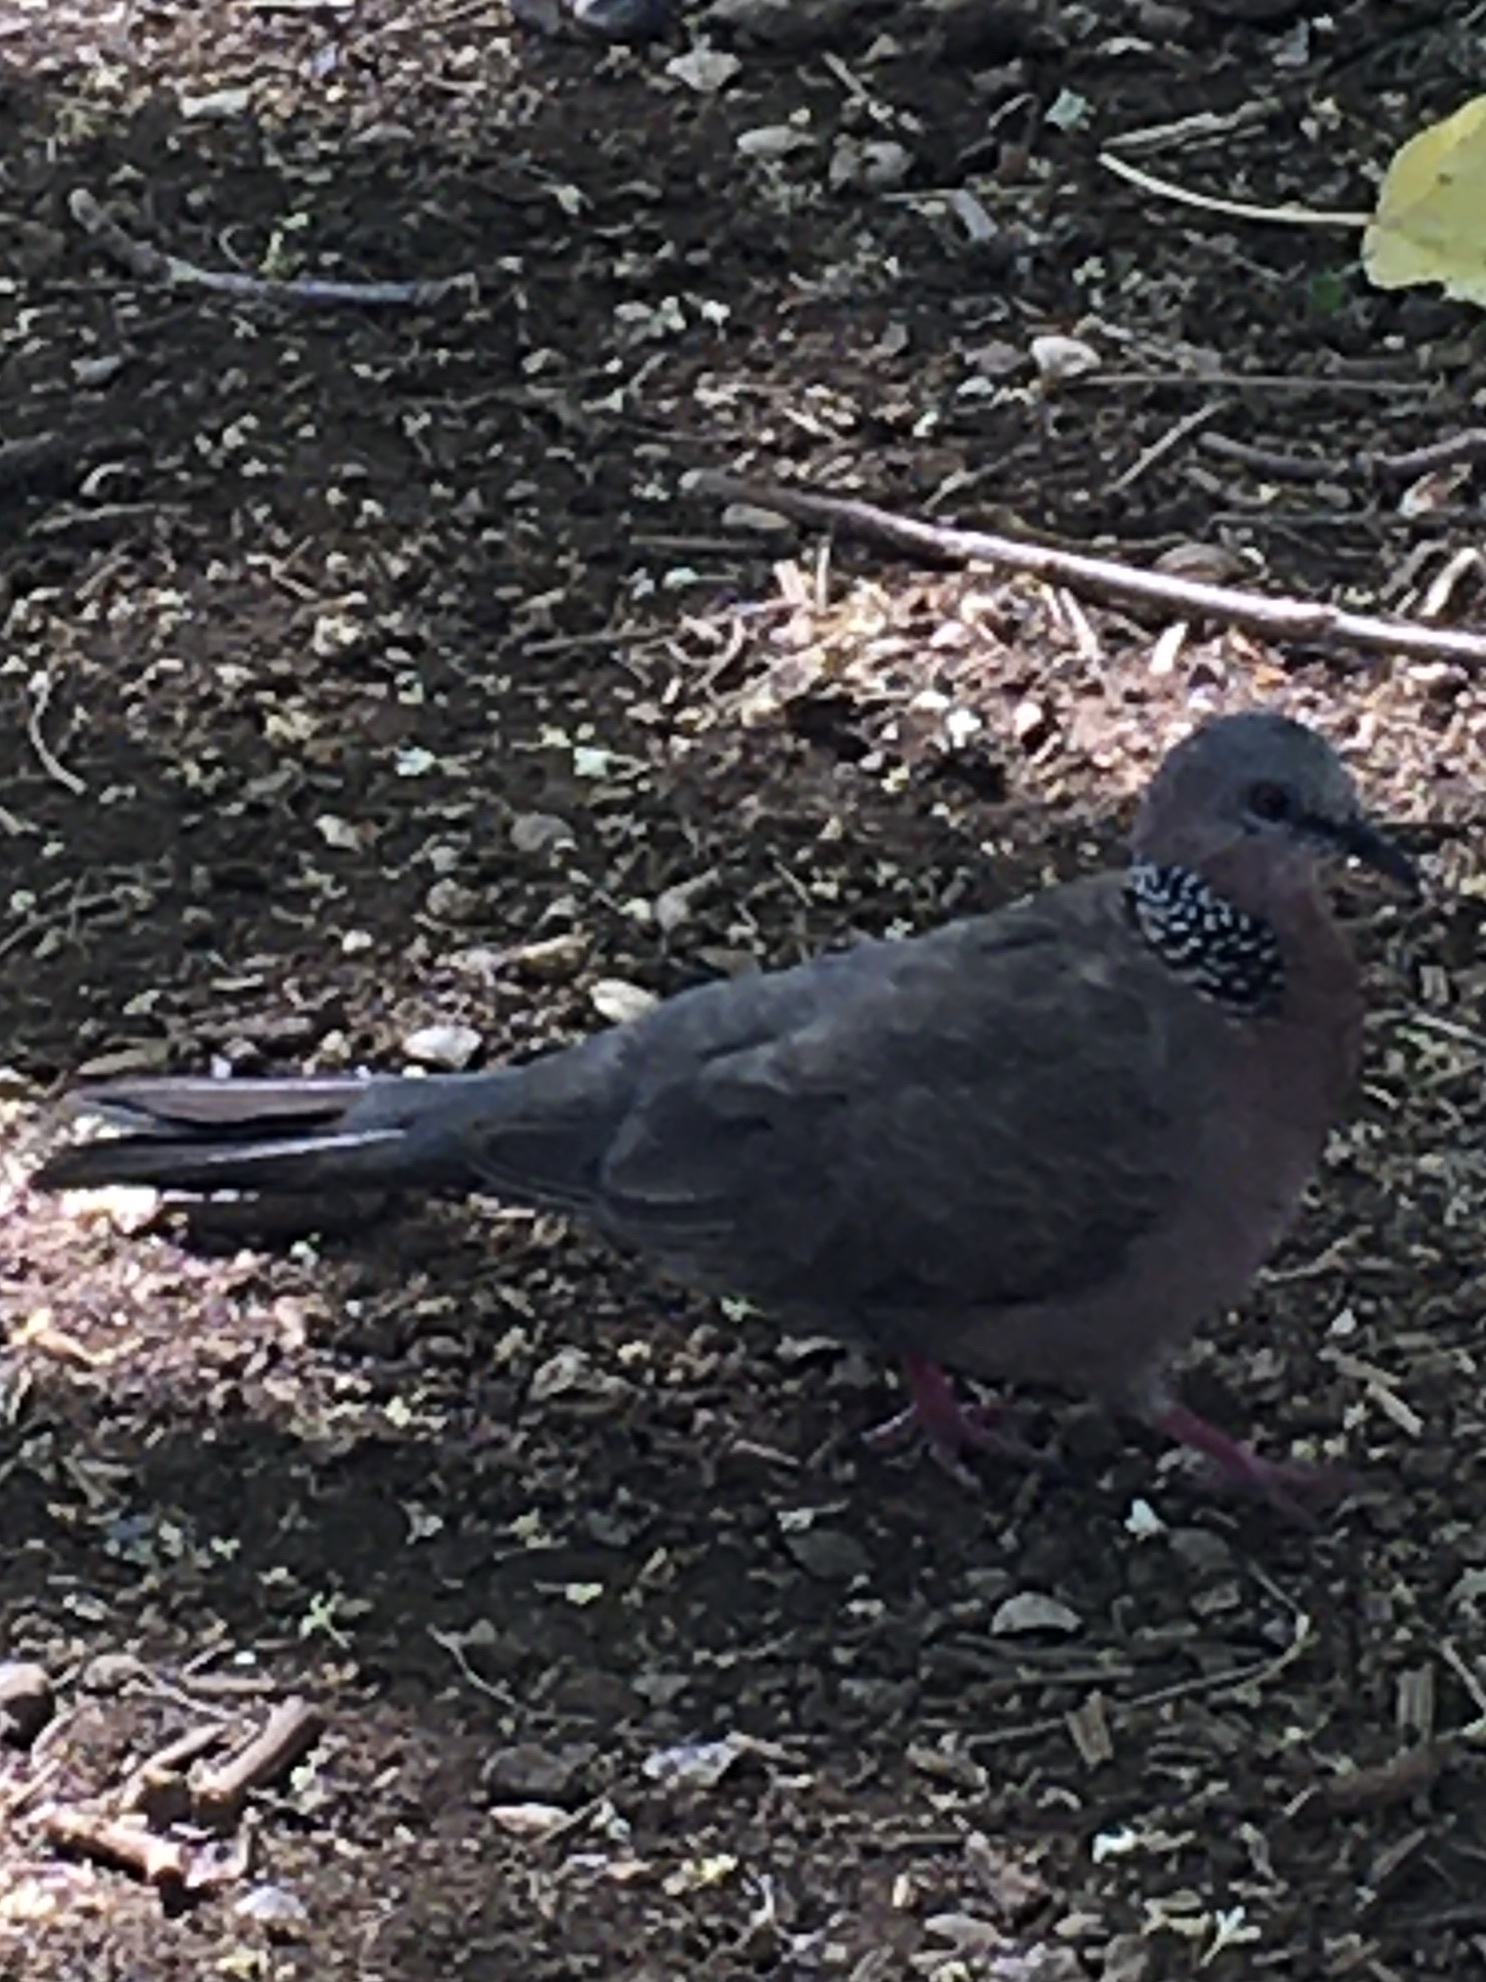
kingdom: Animalia
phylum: Chordata
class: Aves
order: Columbiformes
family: Columbidae
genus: Spilopelia
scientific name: Spilopelia chinensis
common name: Spotted dove
